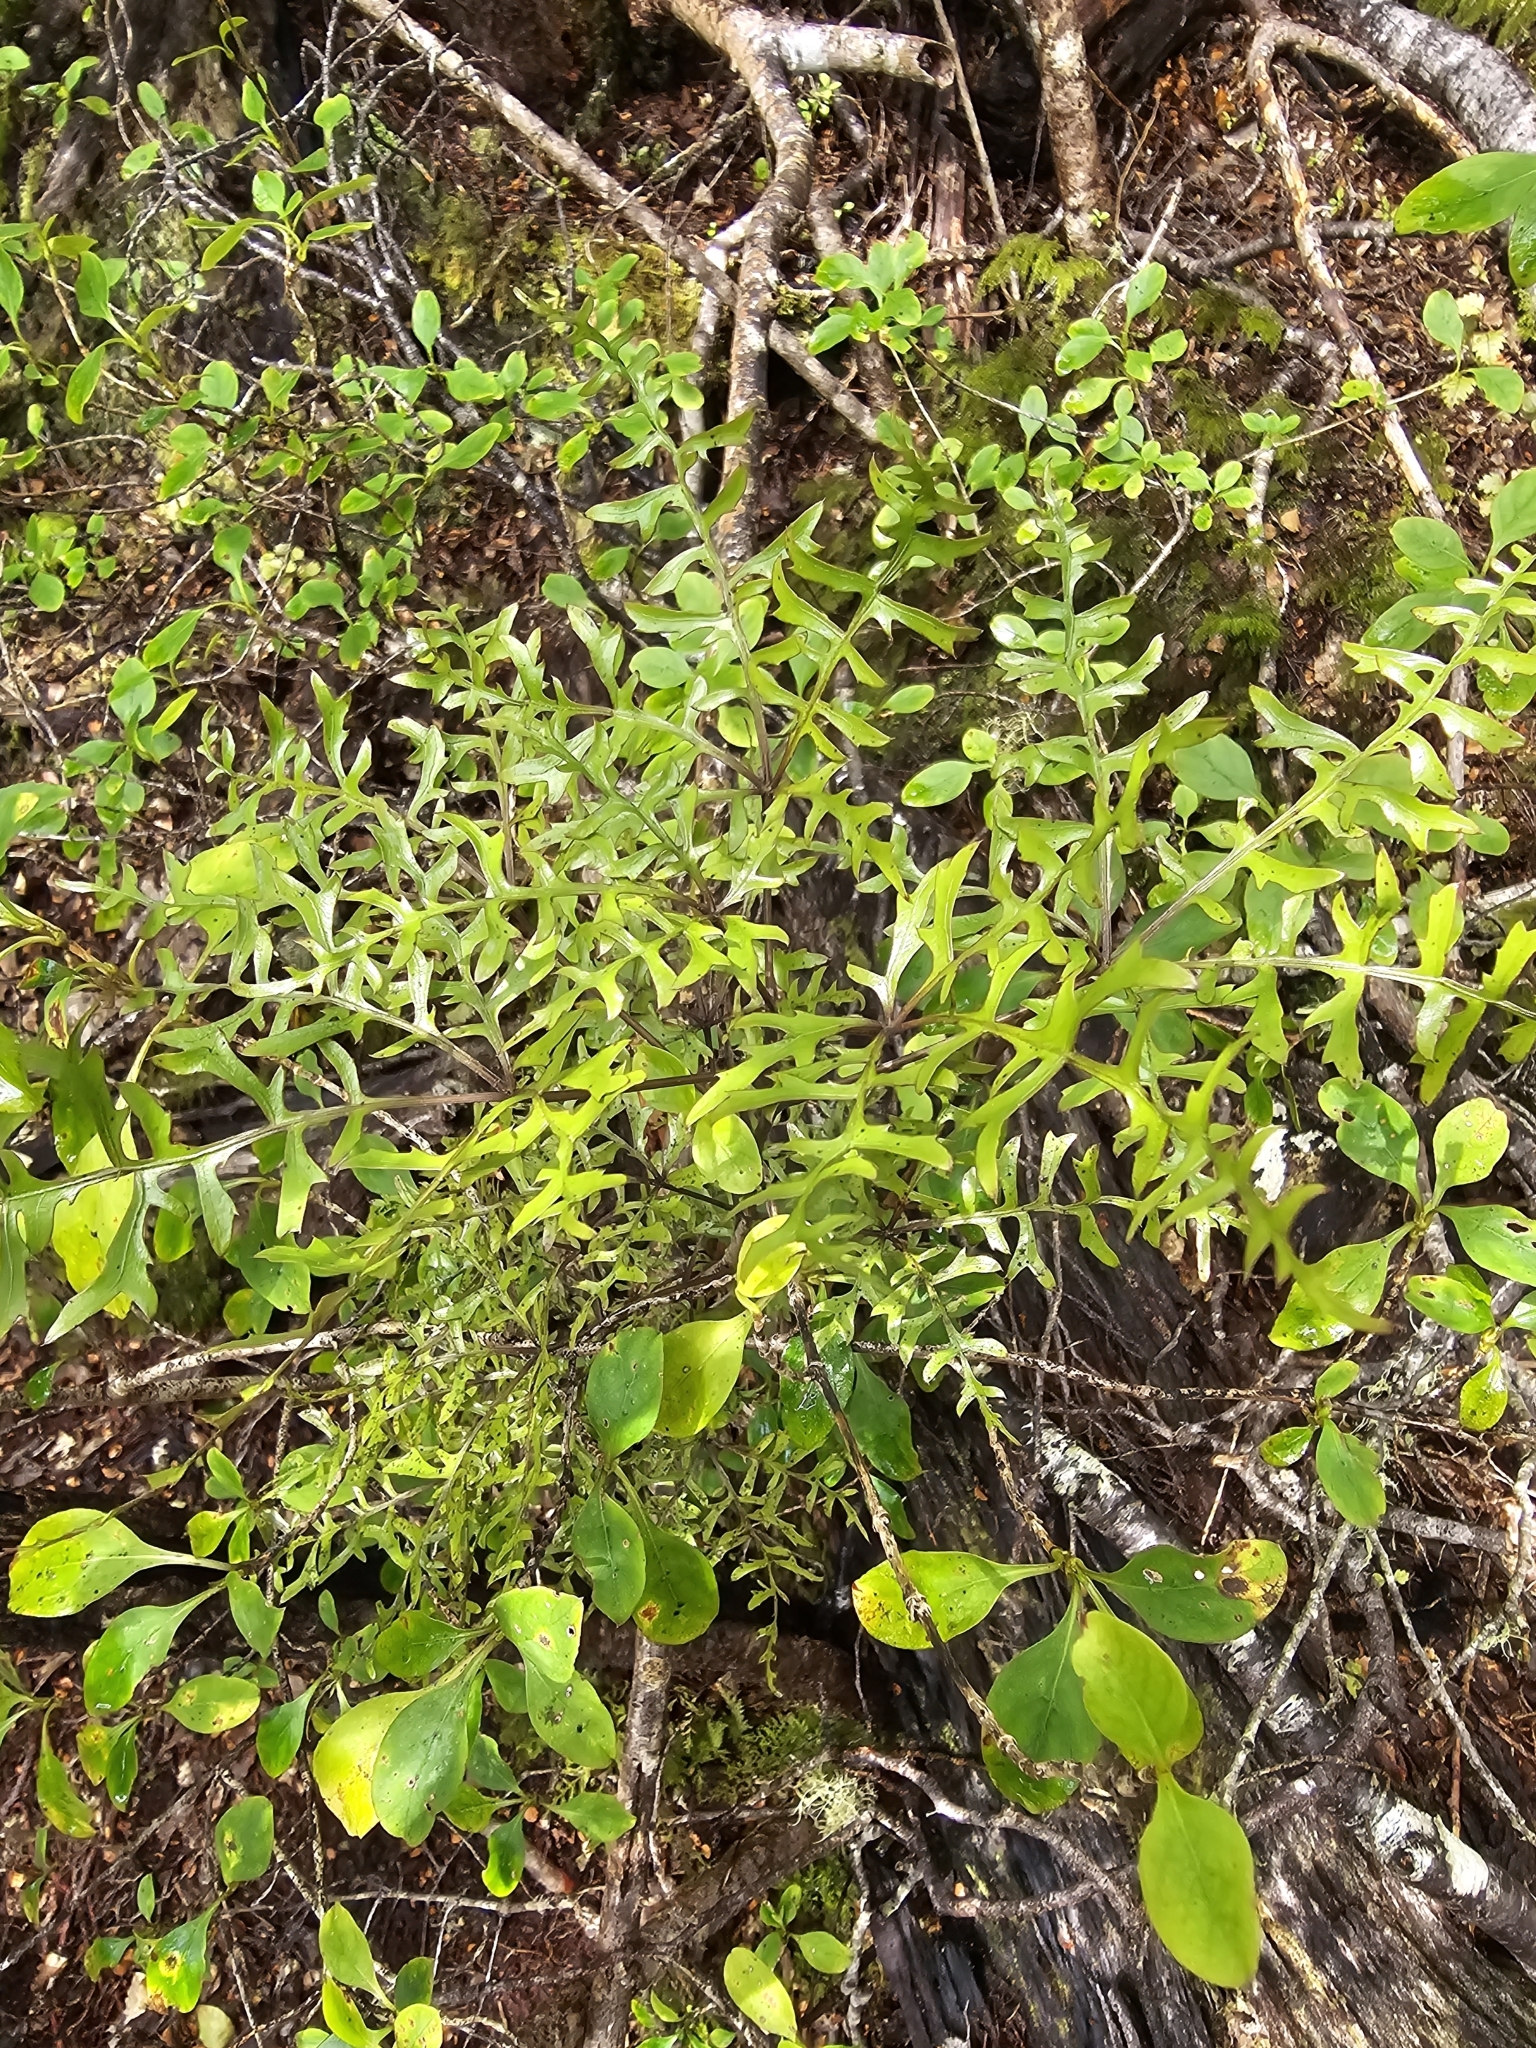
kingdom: Plantae
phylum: Tracheophyta
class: Magnoliopsida
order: Apiales
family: Araliaceae
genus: Raukaua
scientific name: Raukaua simplex
